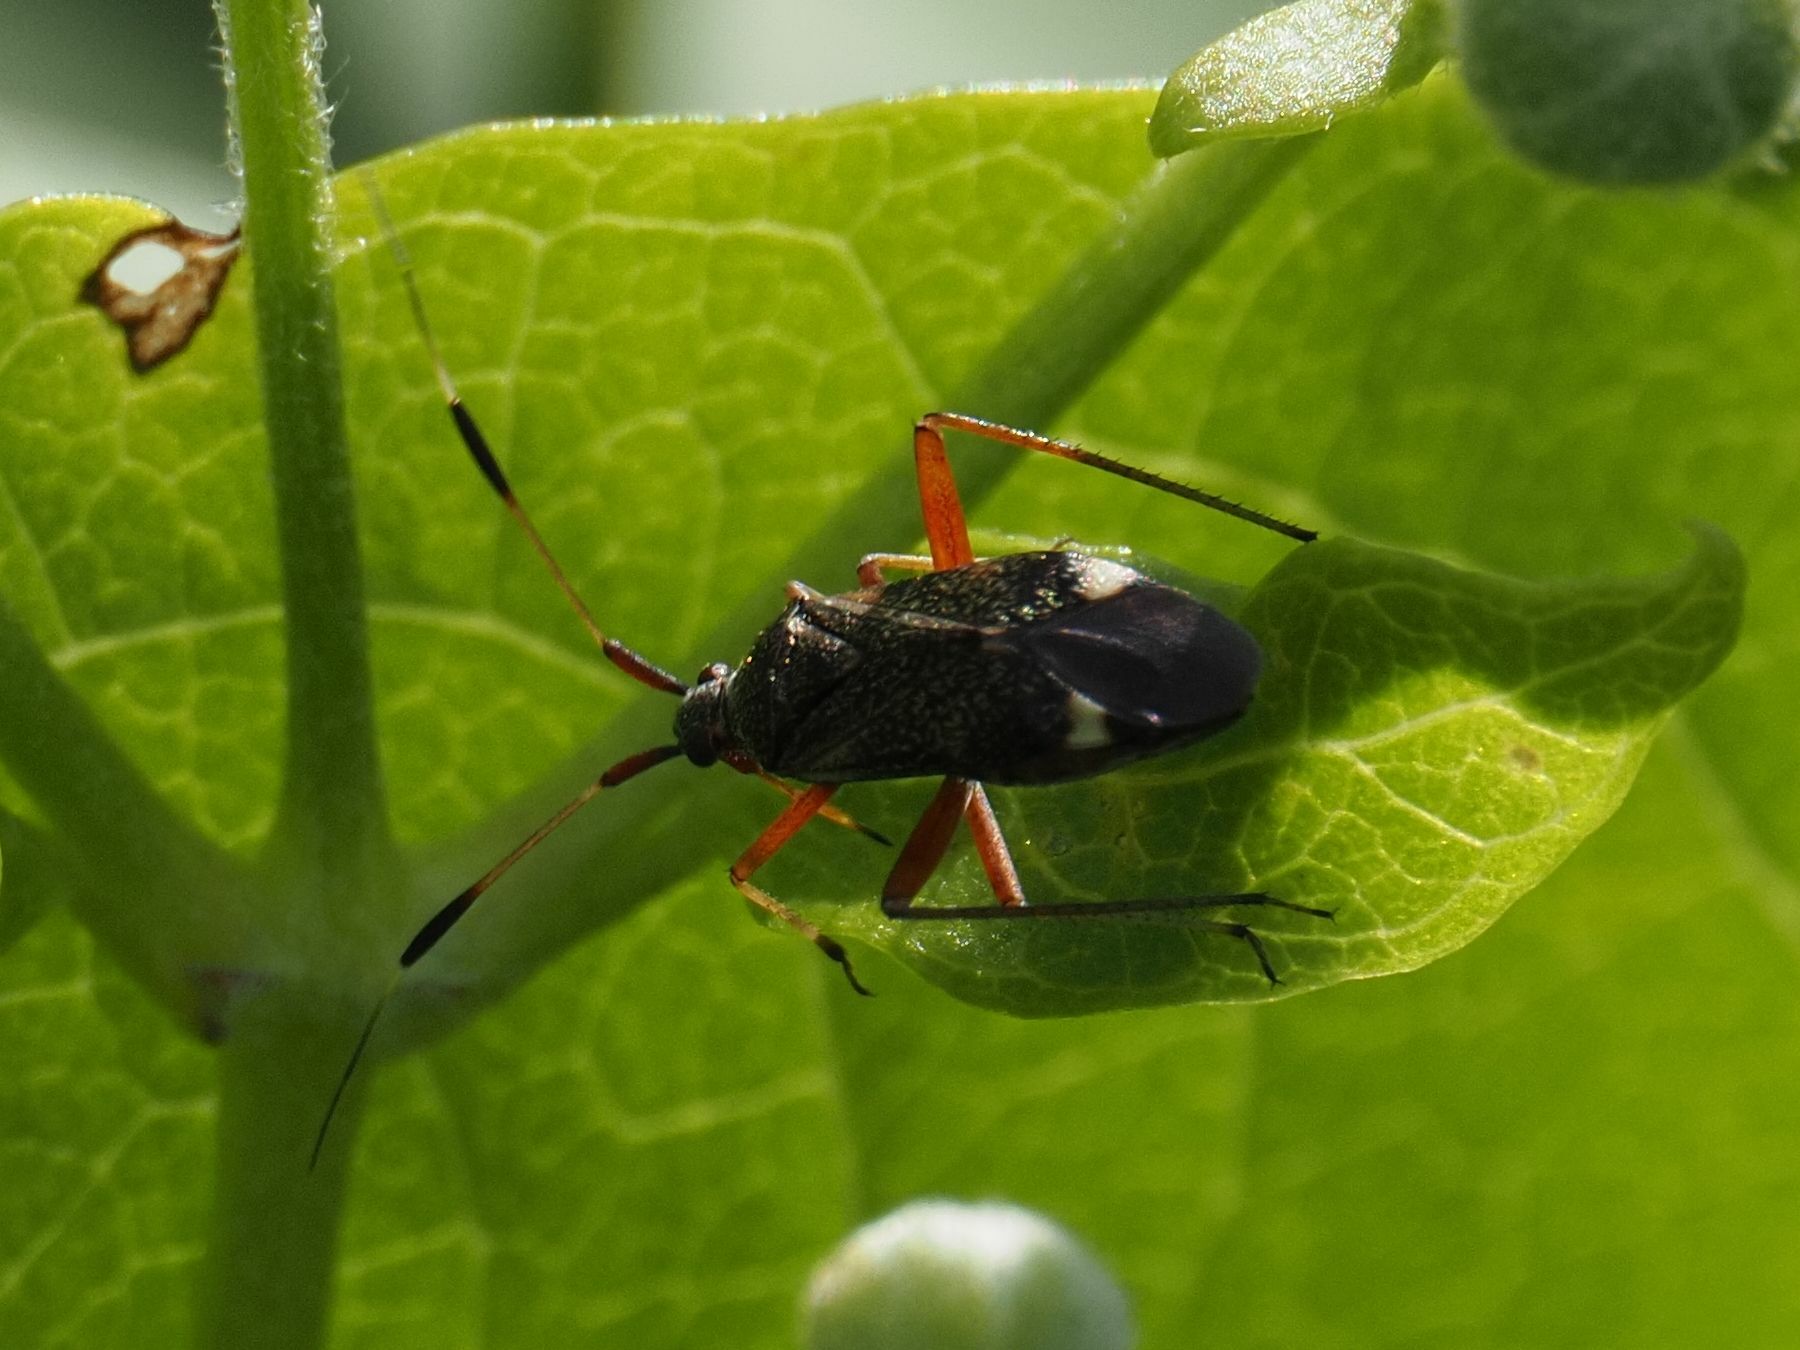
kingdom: Animalia
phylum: Arthropoda
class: Insecta
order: Hemiptera
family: Miridae
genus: Closterotomus
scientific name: Closterotomus biclavatus
